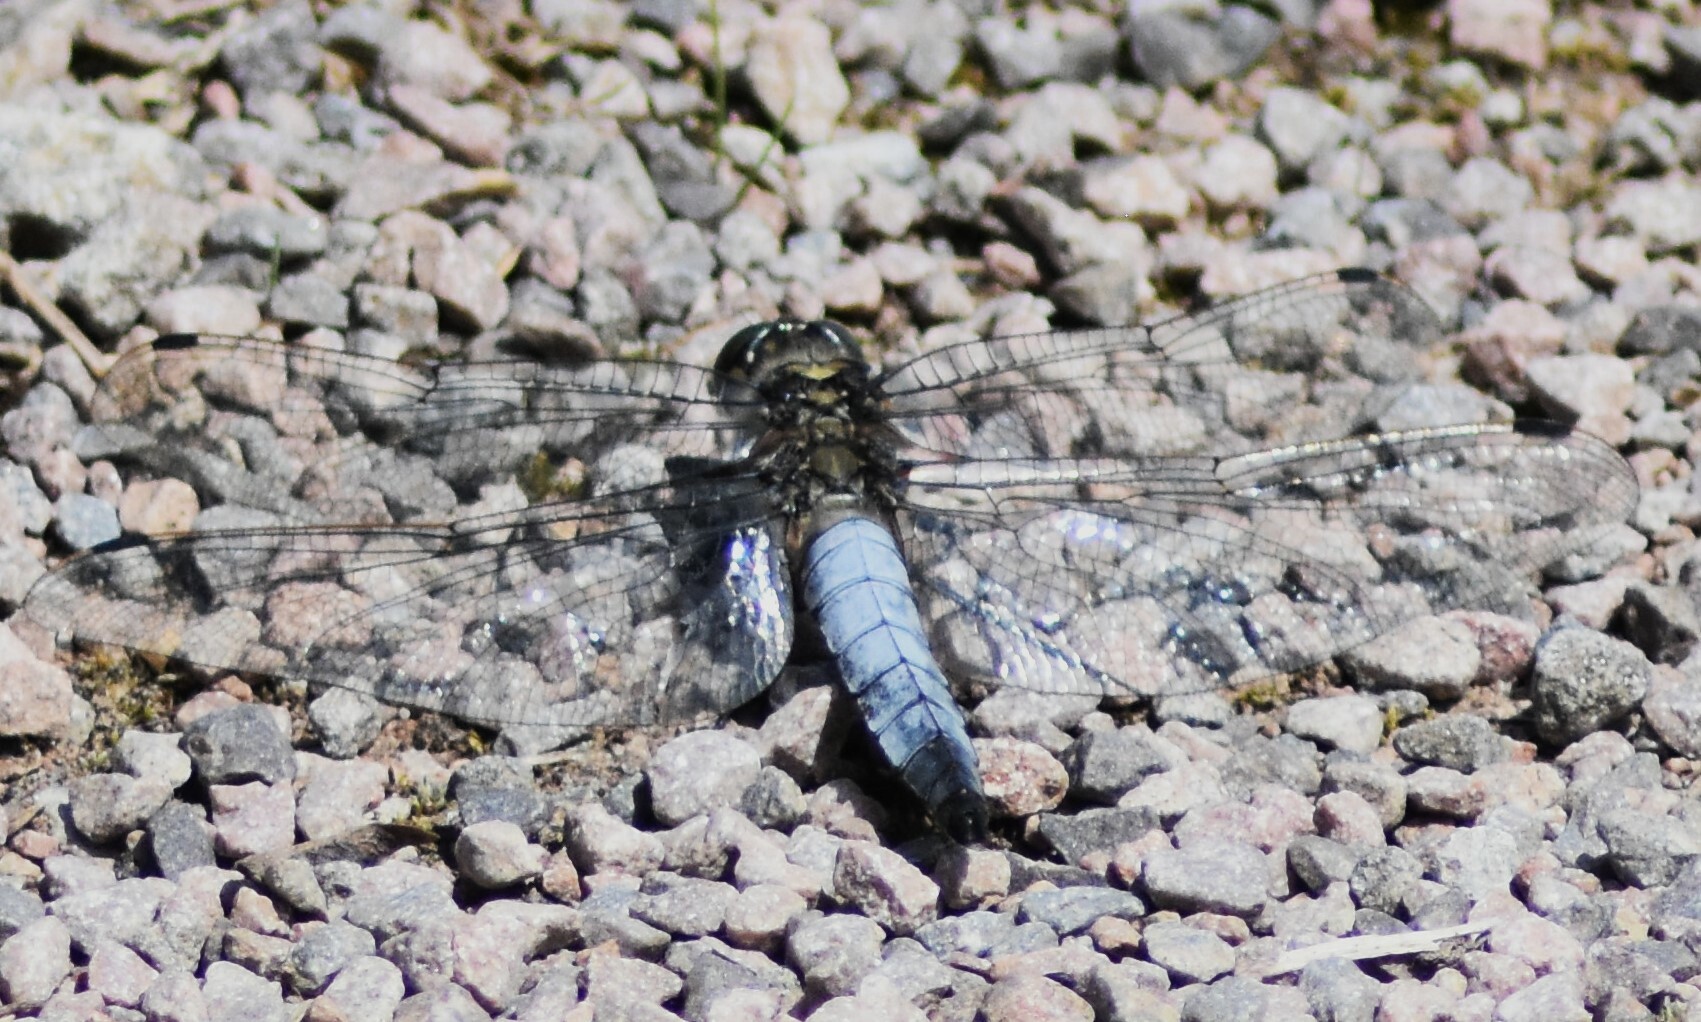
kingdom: Animalia
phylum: Arthropoda
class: Insecta
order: Odonata
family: Libellulidae
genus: Orthetrum
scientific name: Orthetrum cancellatum
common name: Black-tailed skimmer
